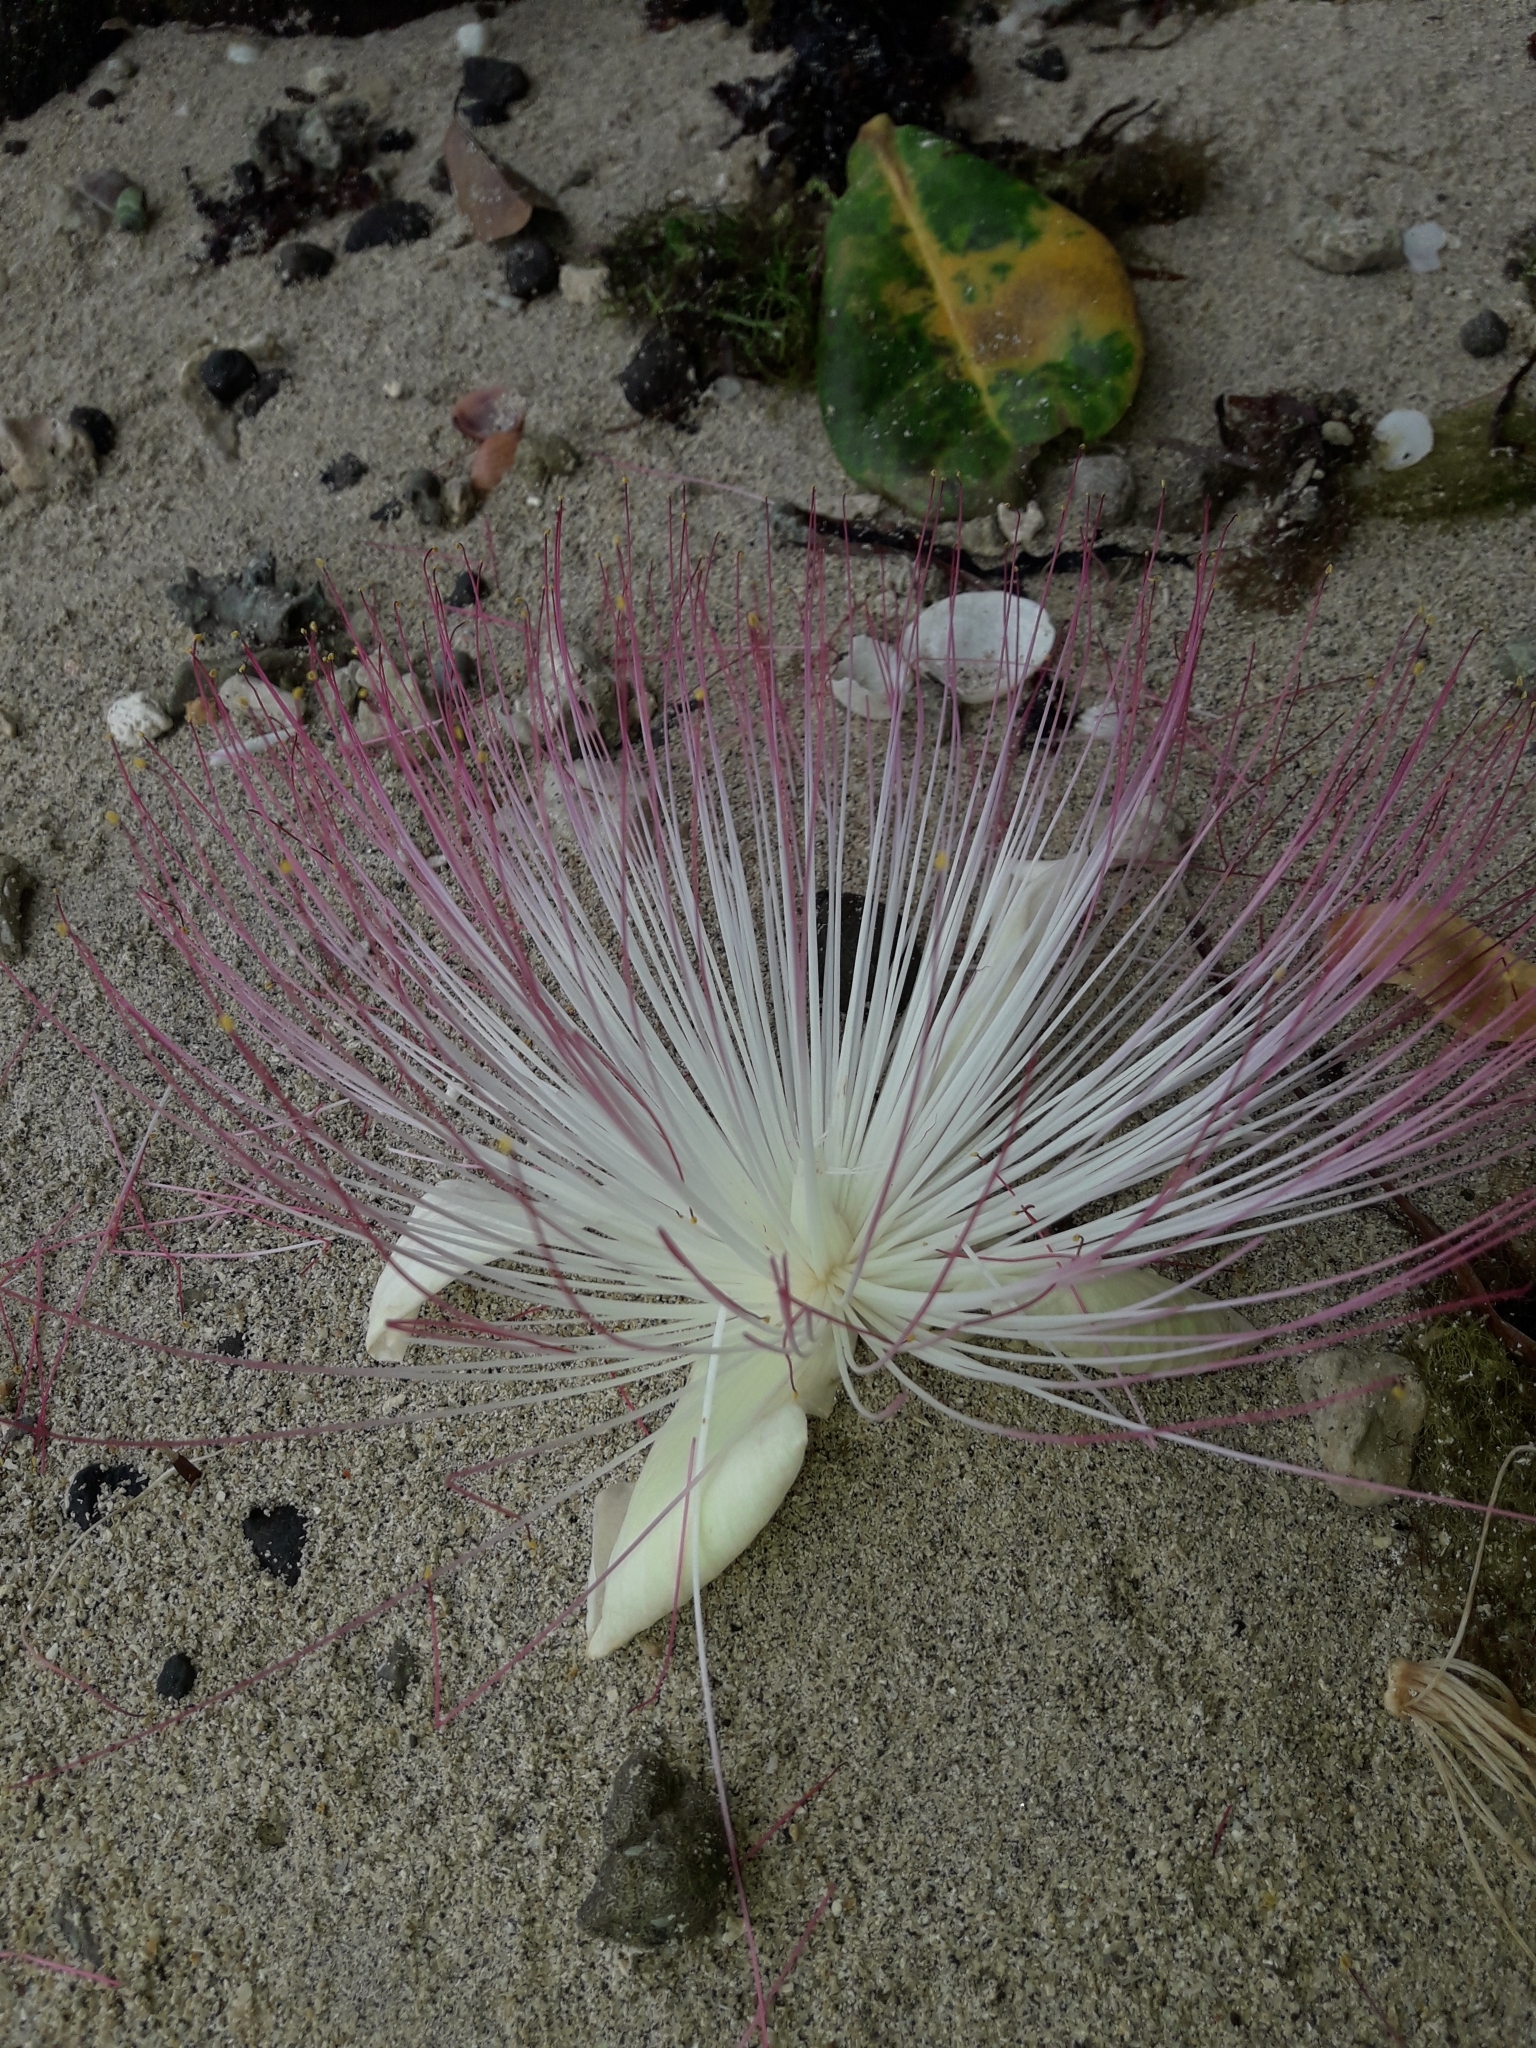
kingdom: Plantae
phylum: Tracheophyta
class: Magnoliopsida
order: Ericales
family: Lecythidaceae
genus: Barringtonia
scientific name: Barringtonia asiatica
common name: Mango-pine
